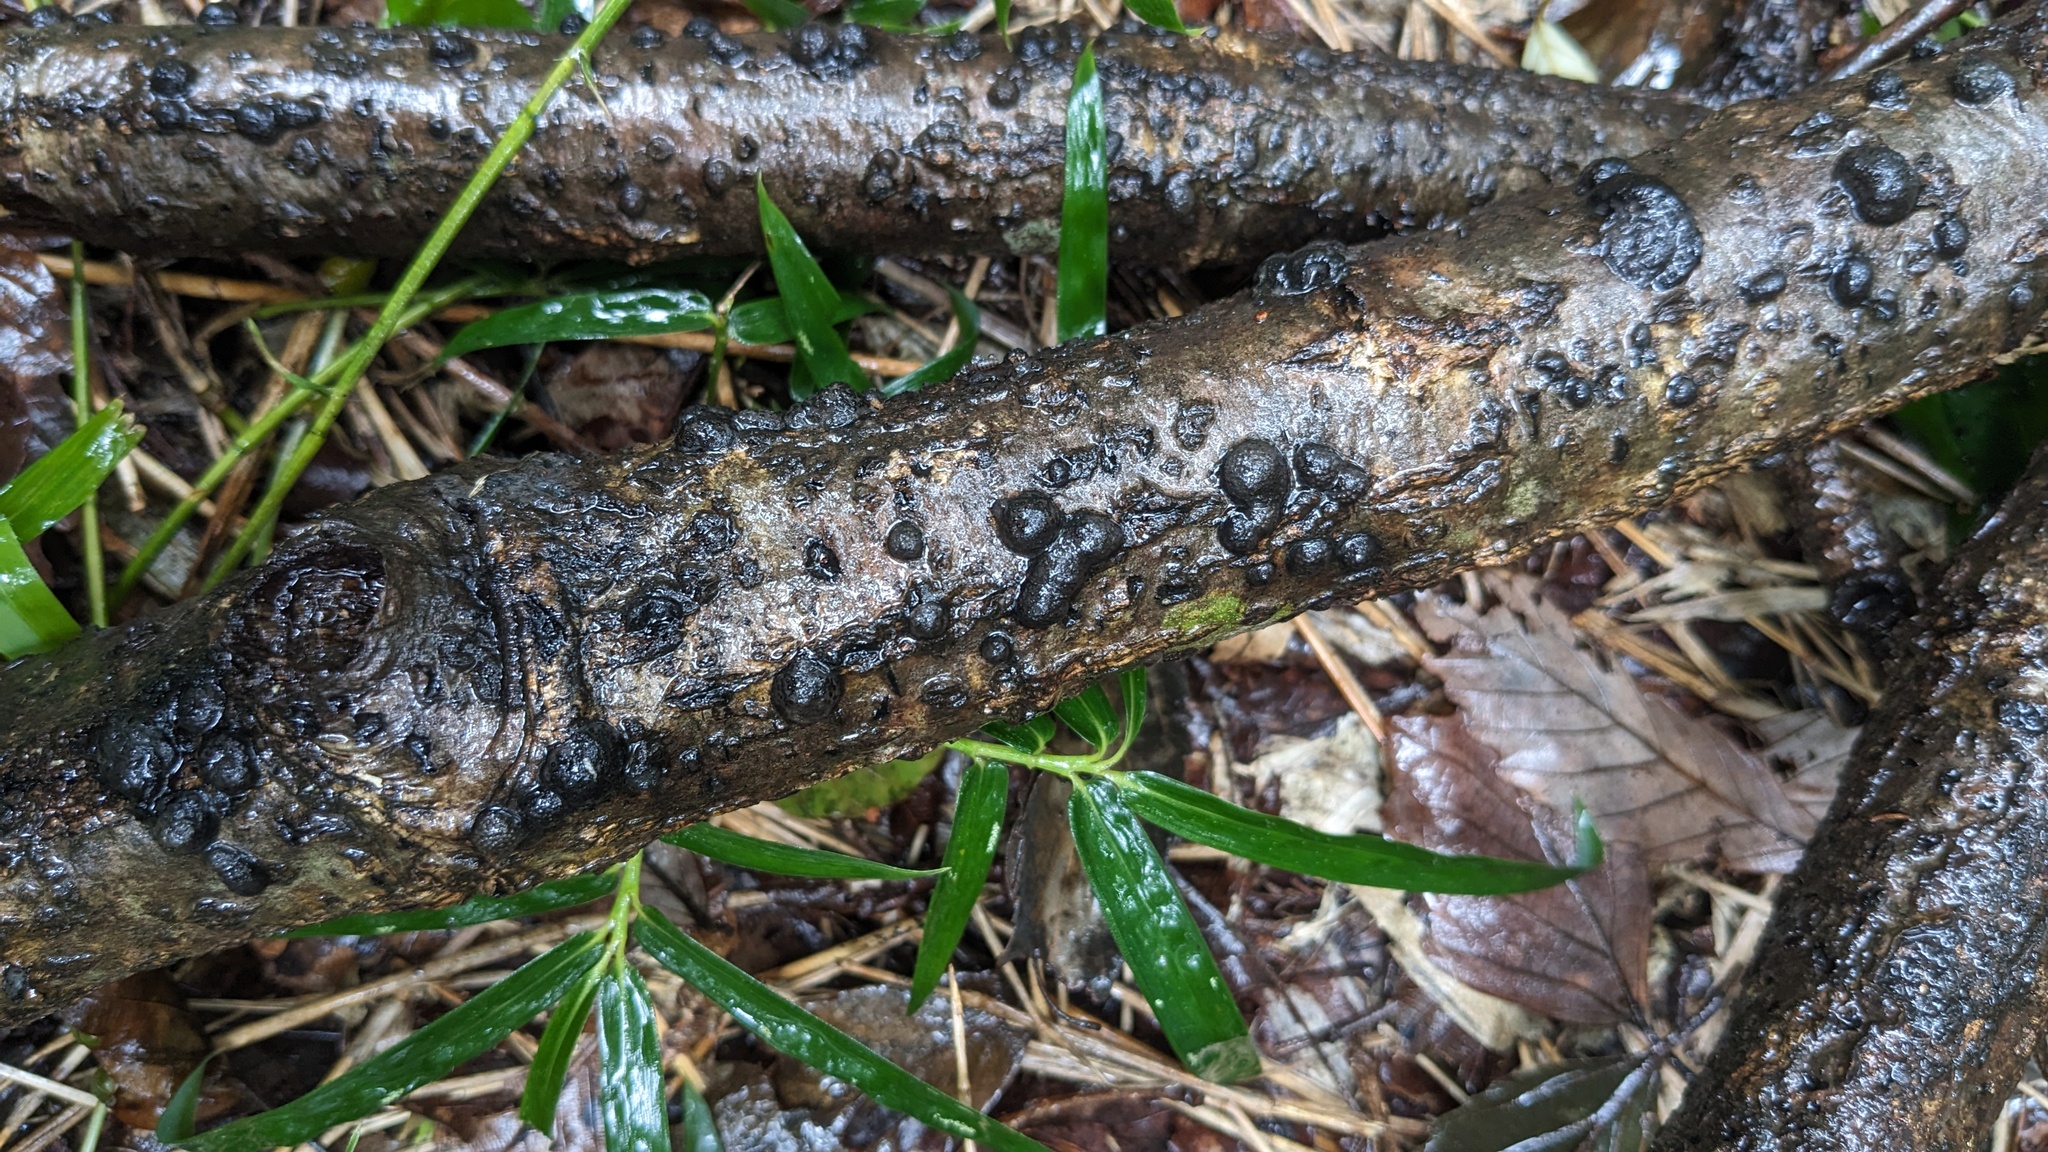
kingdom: Fungi
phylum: Ascomycota
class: Sordariomycetes
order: Xylariales
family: Hypoxylaceae
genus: Annulohypoxylon
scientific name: Annulohypoxylon truncatum
